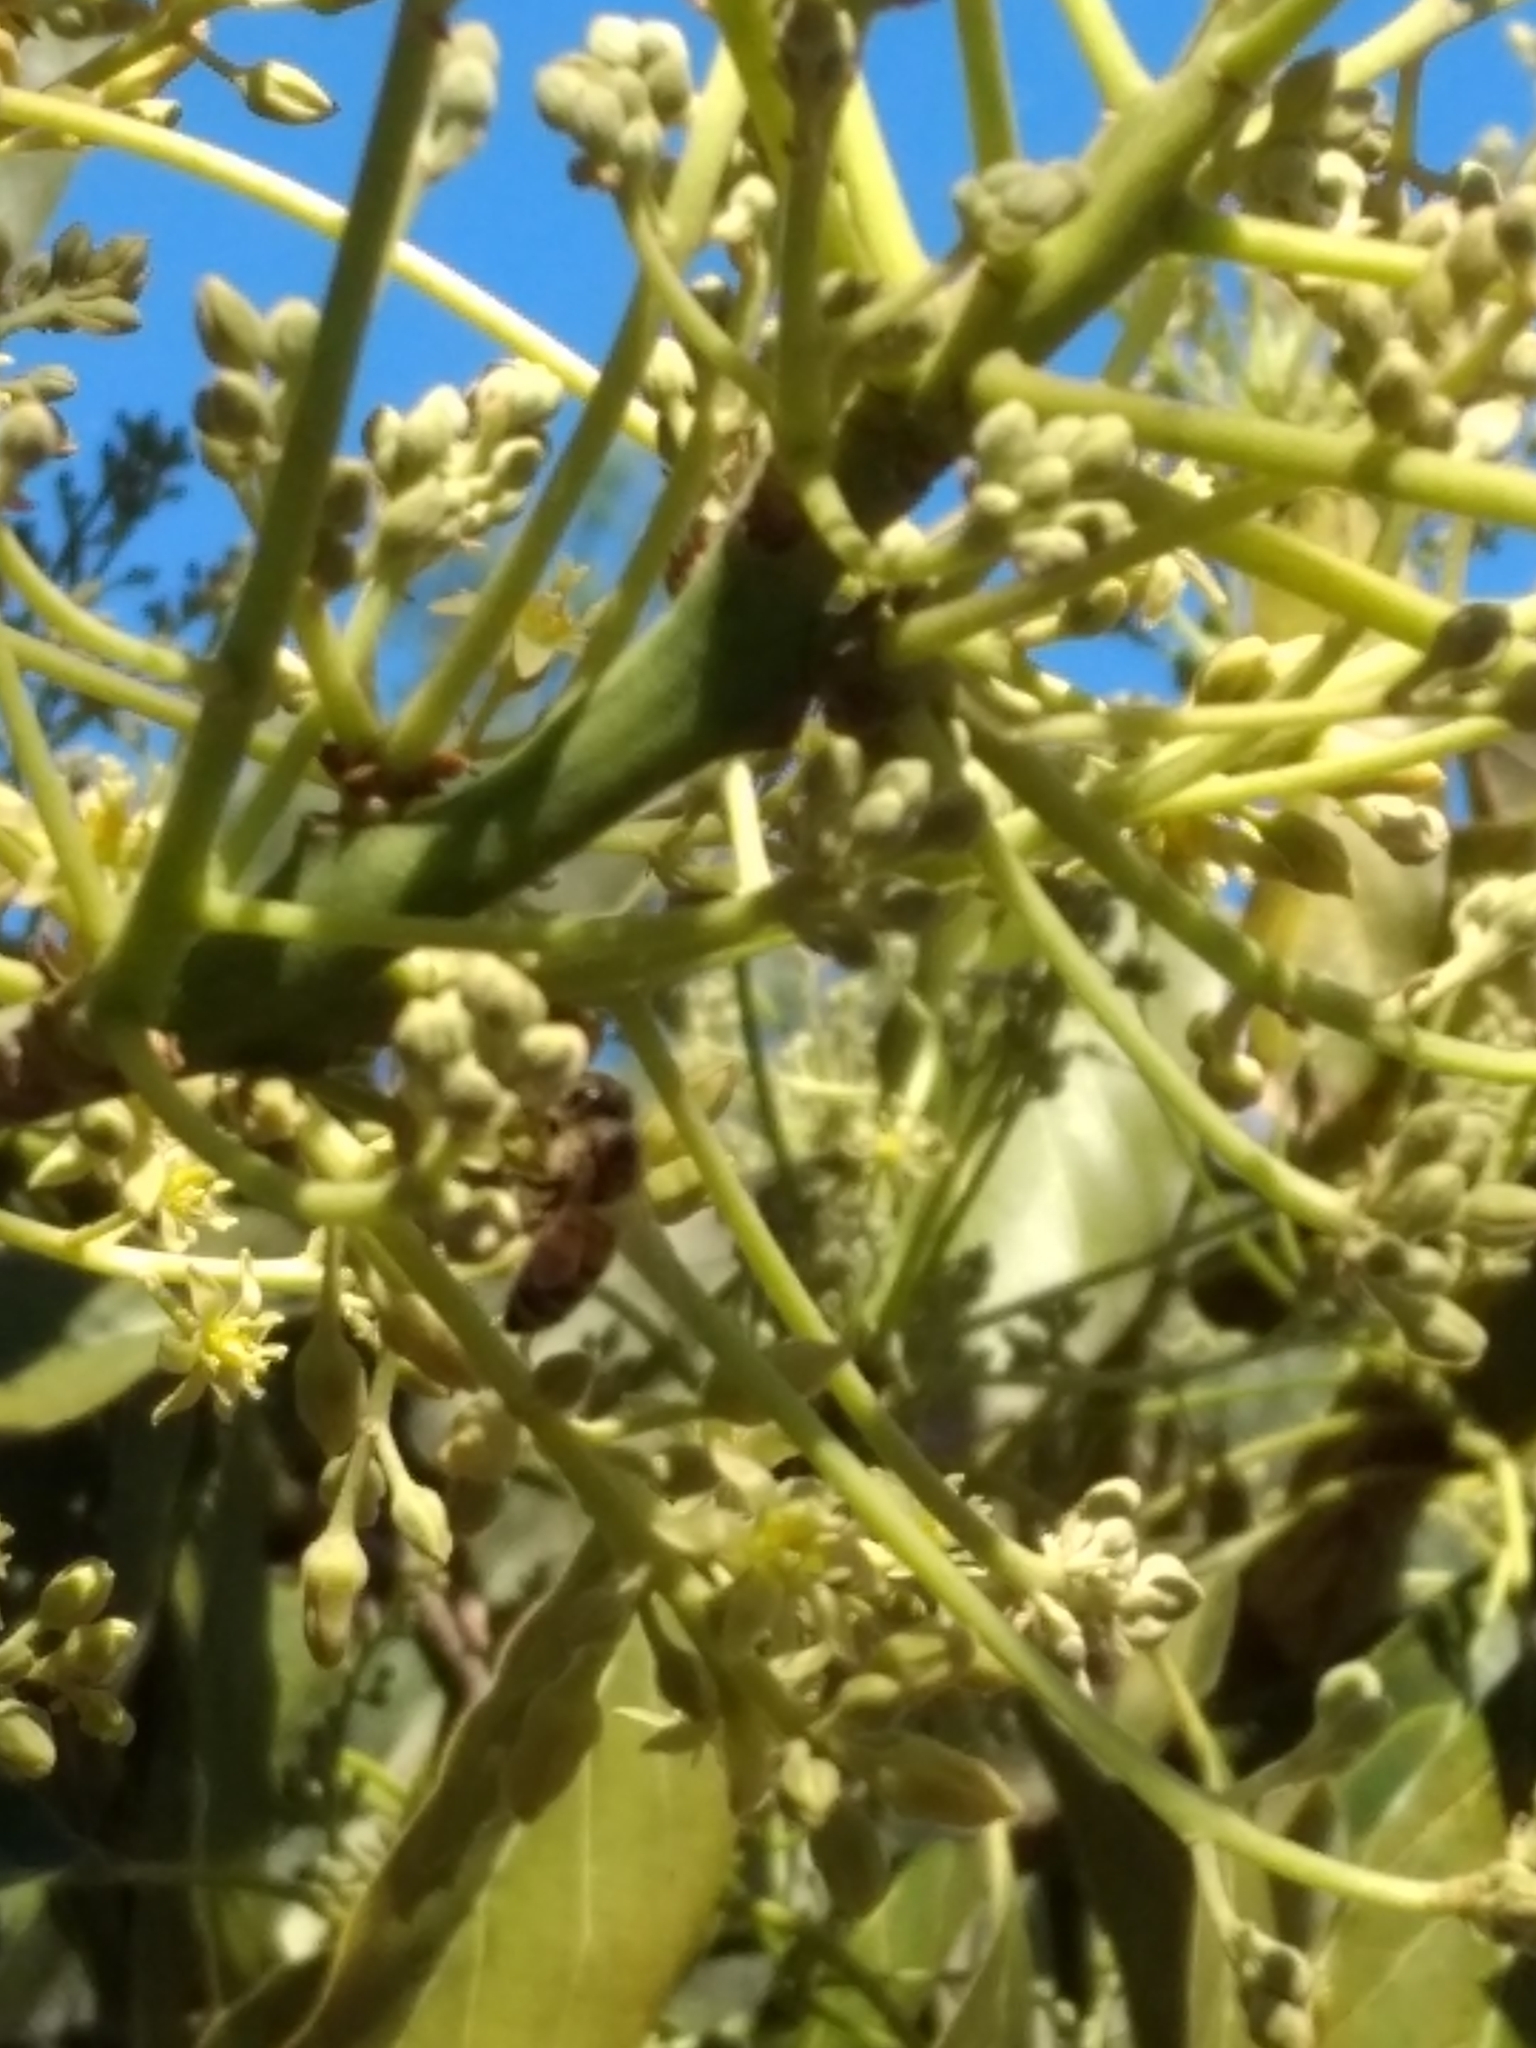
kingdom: Animalia
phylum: Arthropoda
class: Insecta
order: Hymenoptera
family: Apidae
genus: Apis
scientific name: Apis mellifera
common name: Honey bee
